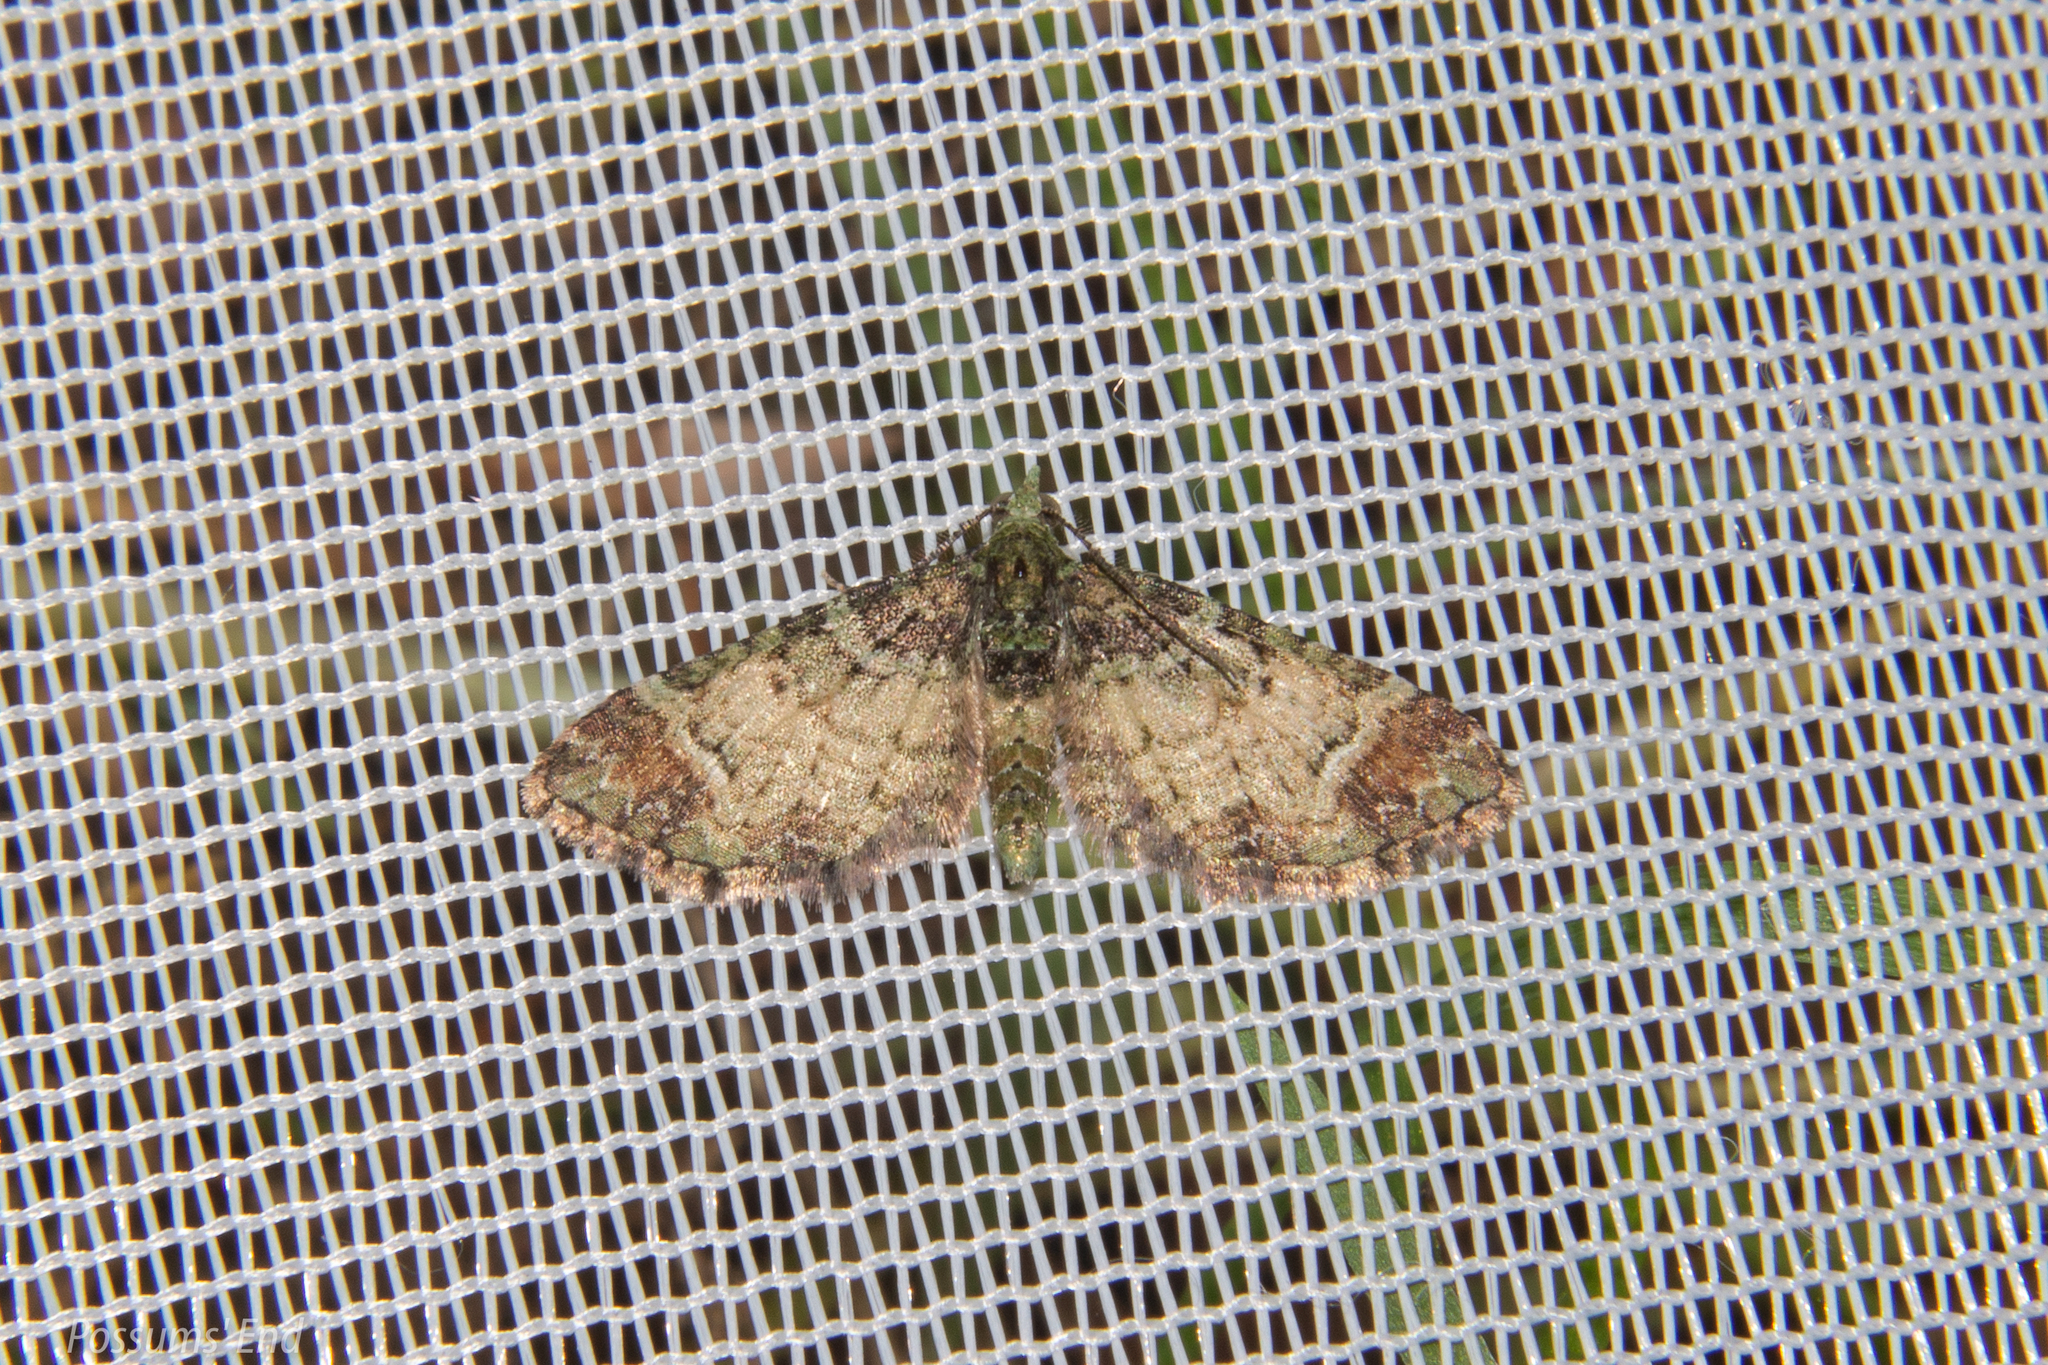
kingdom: Animalia
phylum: Arthropoda
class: Insecta
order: Lepidoptera
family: Geometridae
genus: Pasiphila
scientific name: Pasiphila sandycias
